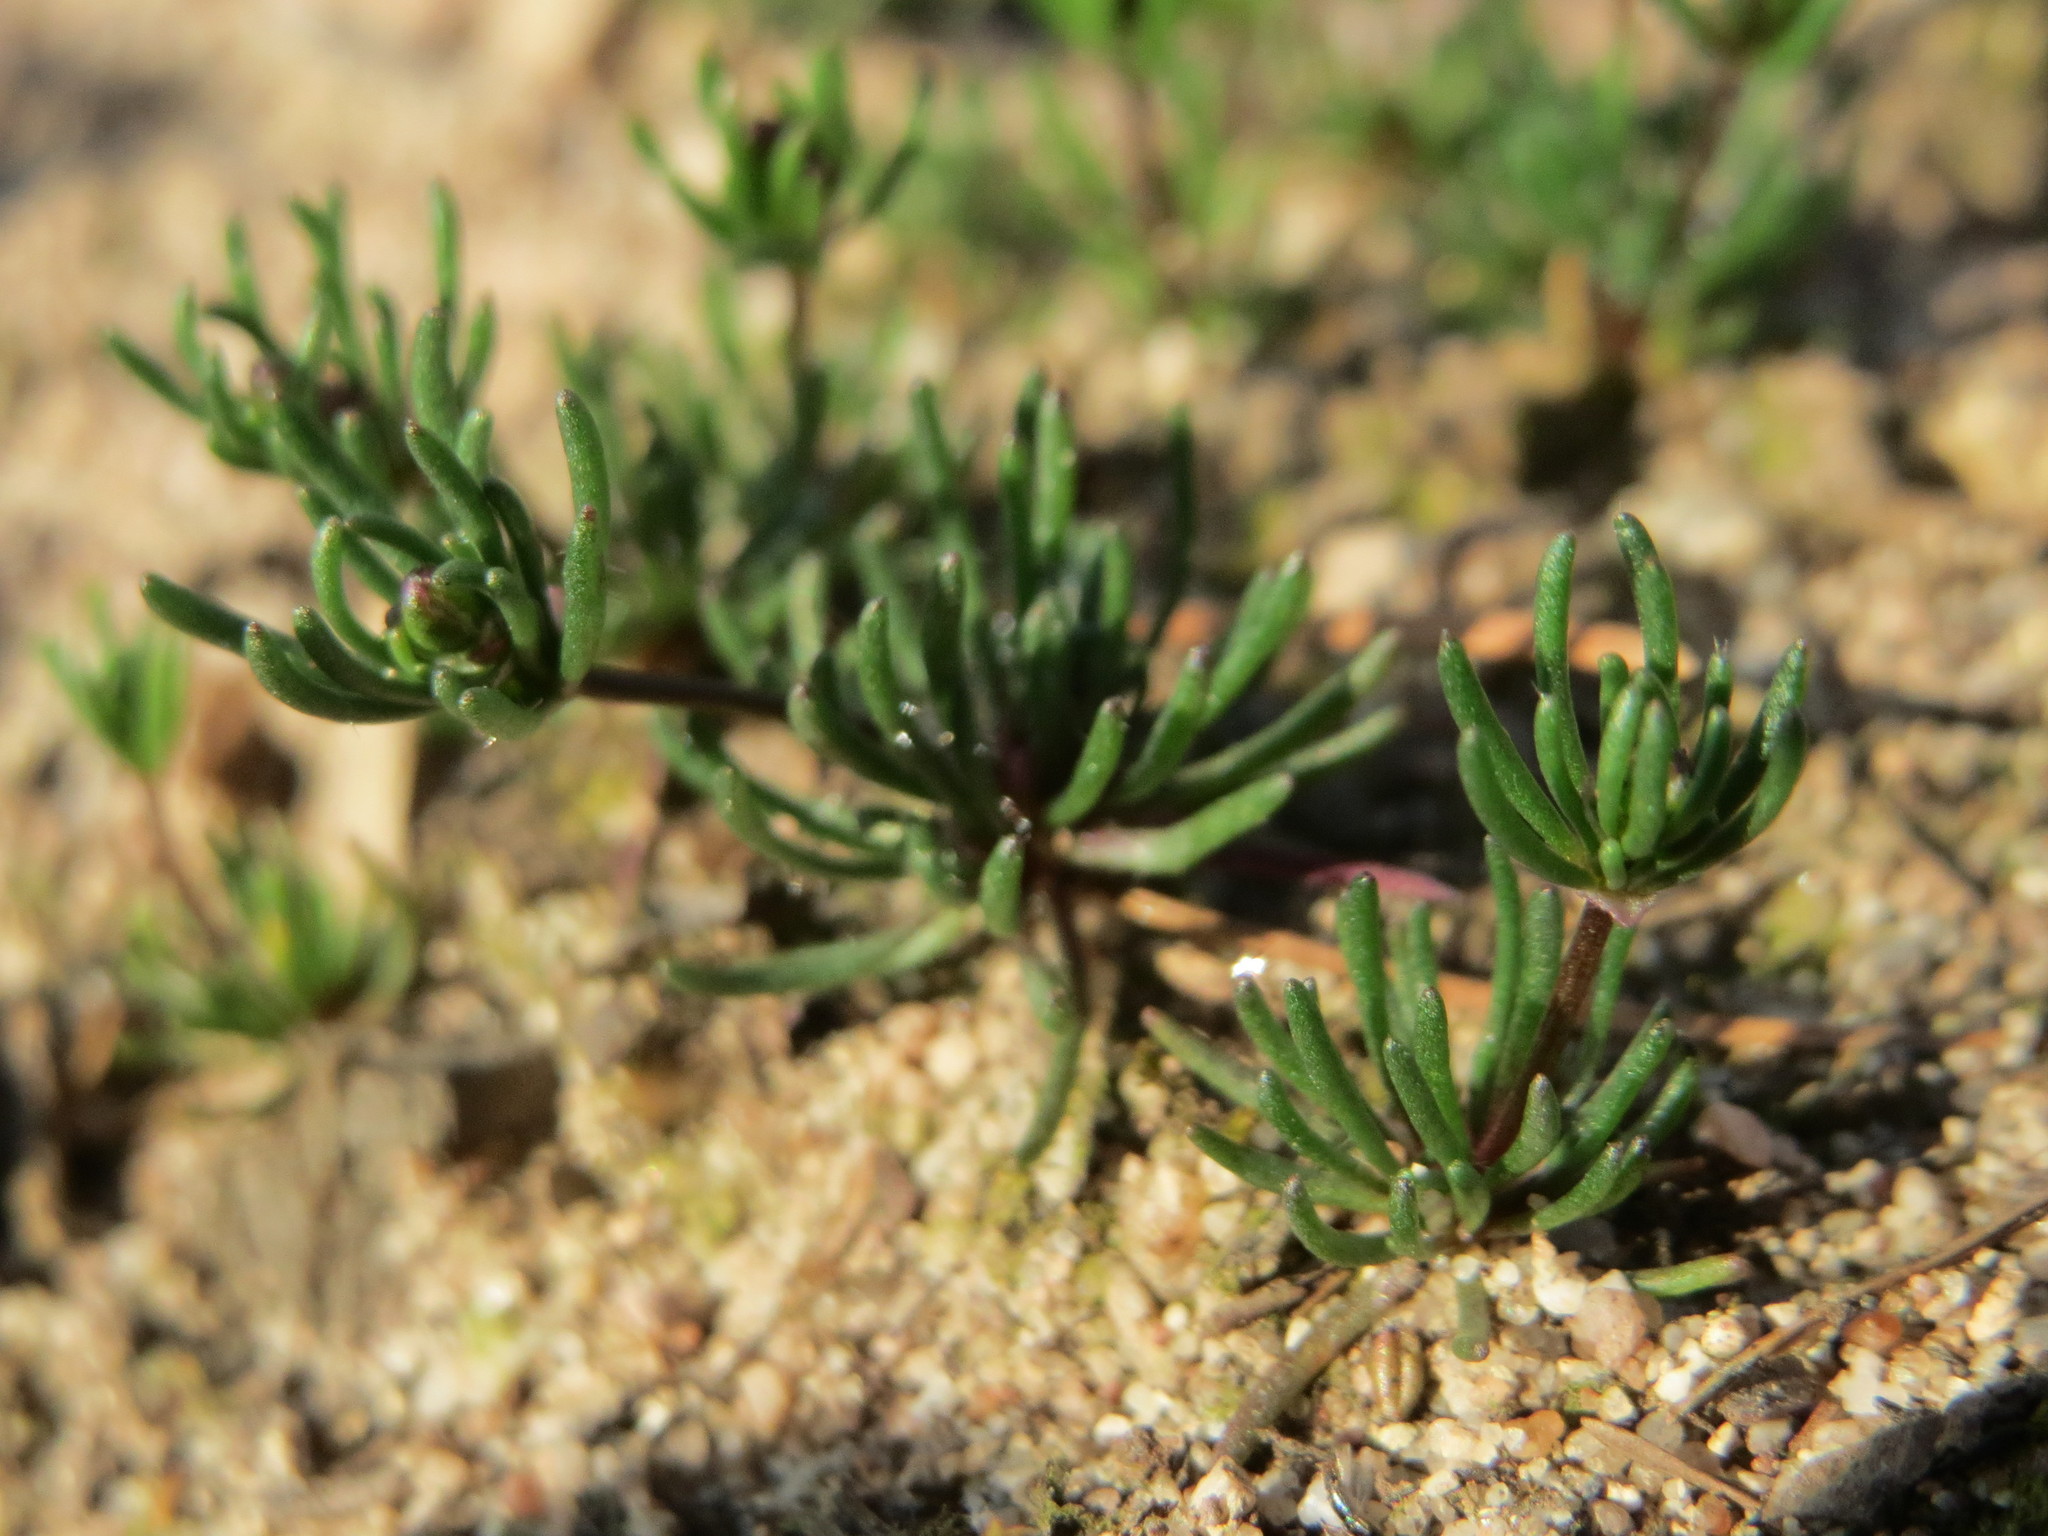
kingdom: Plantae
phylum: Tracheophyta
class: Magnoliopsida
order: Caryophyllales
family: Caryophyllaceae
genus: Spergula
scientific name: Spergula morisonii
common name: Pearlwort spurrey
